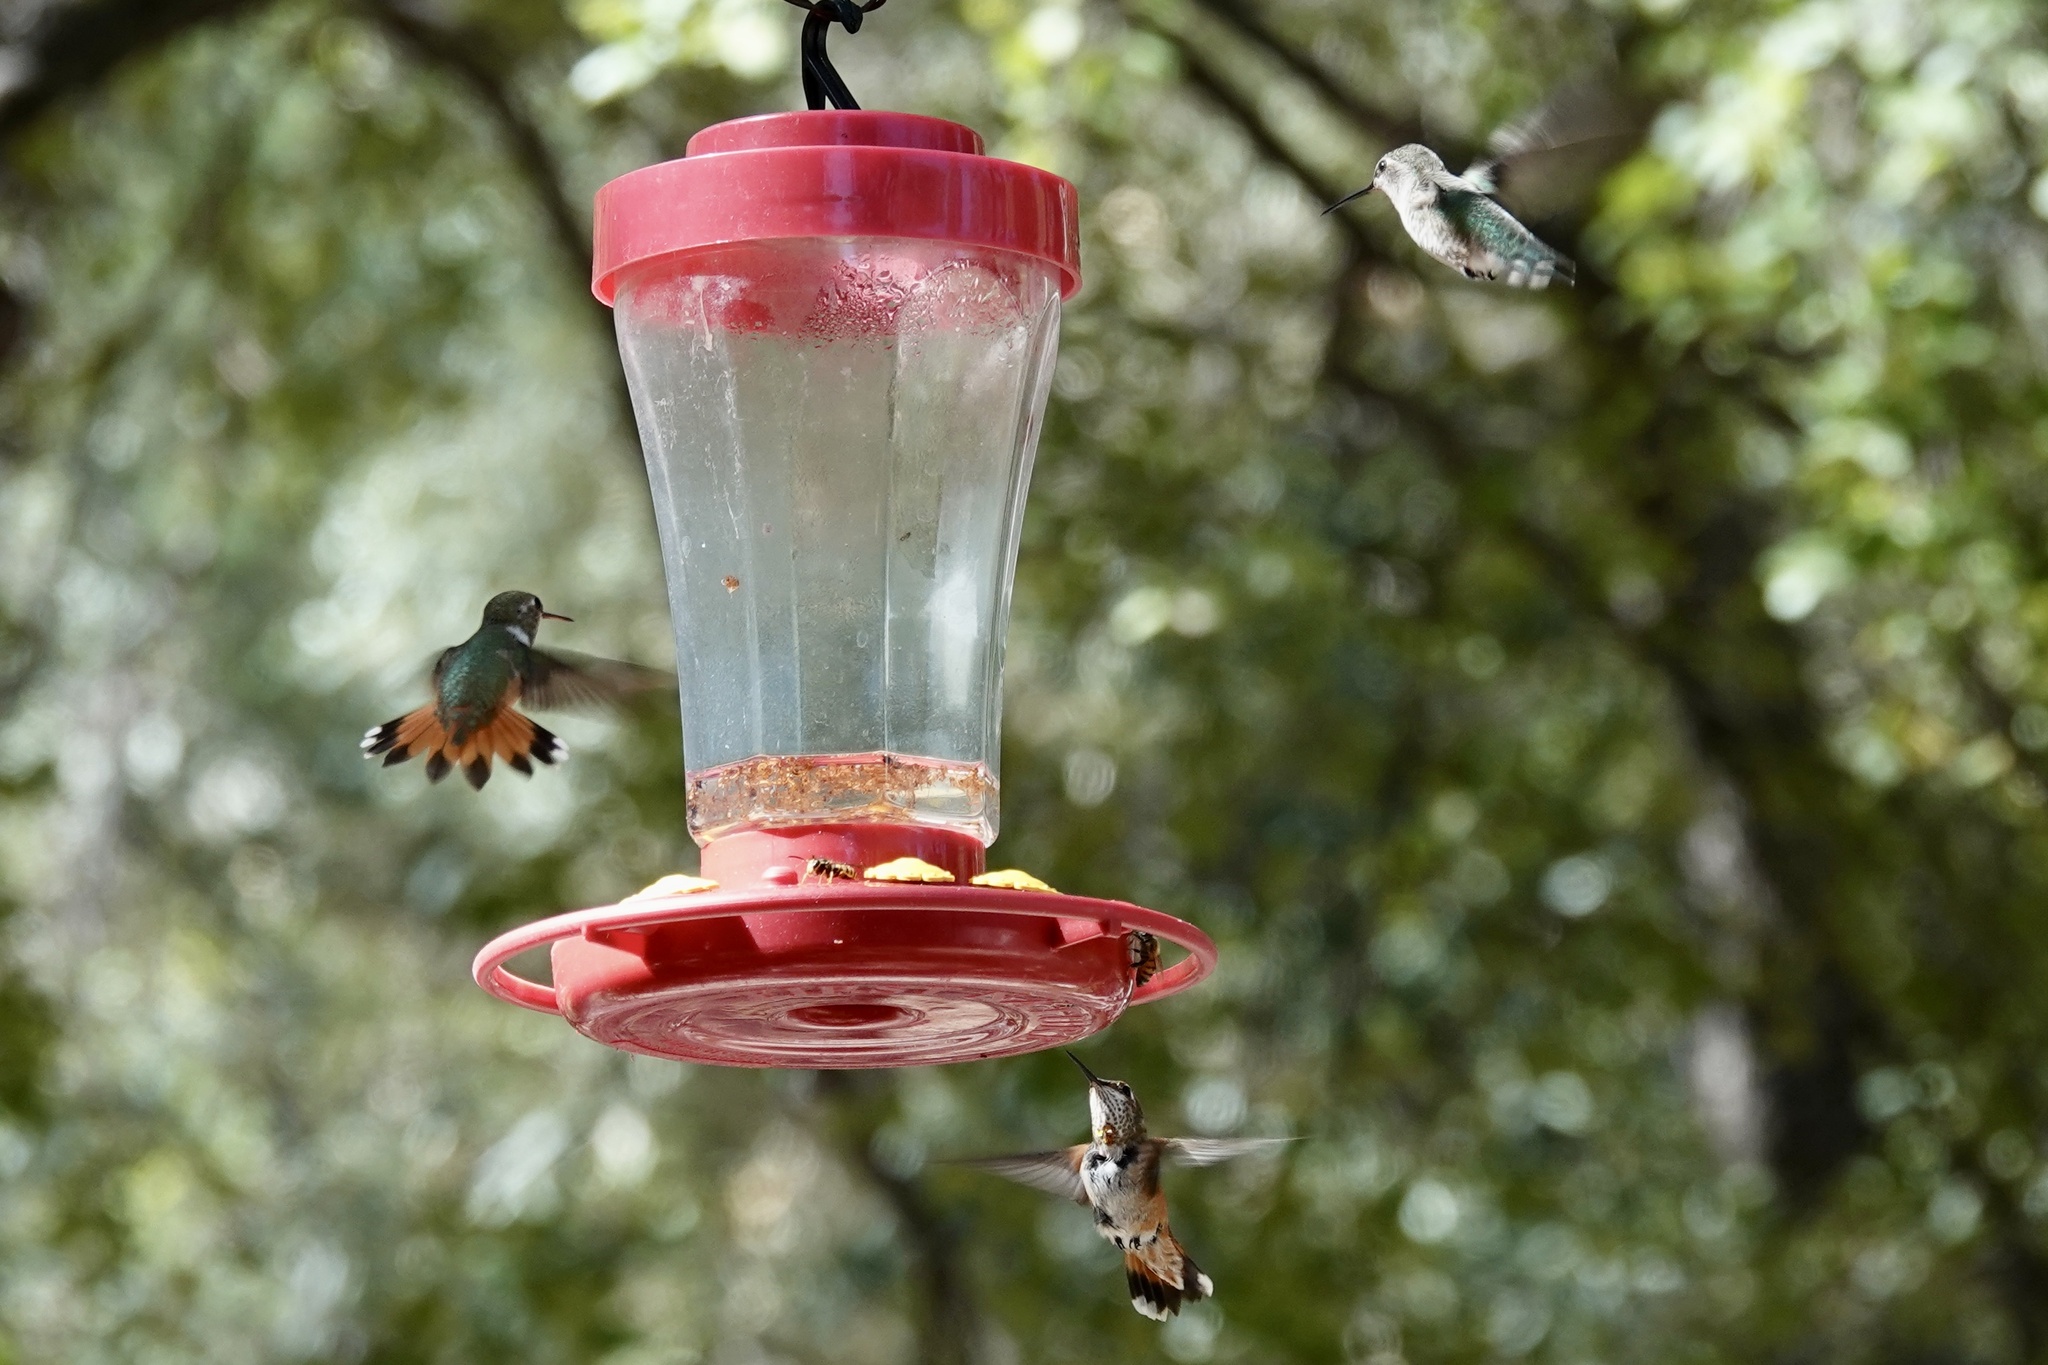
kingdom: Animalia
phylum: Chordata
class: Aves
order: Apodiformes
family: Trochilidae
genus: Selasphorus
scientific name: Selasphorus rufus
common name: Rufous hummingbird
